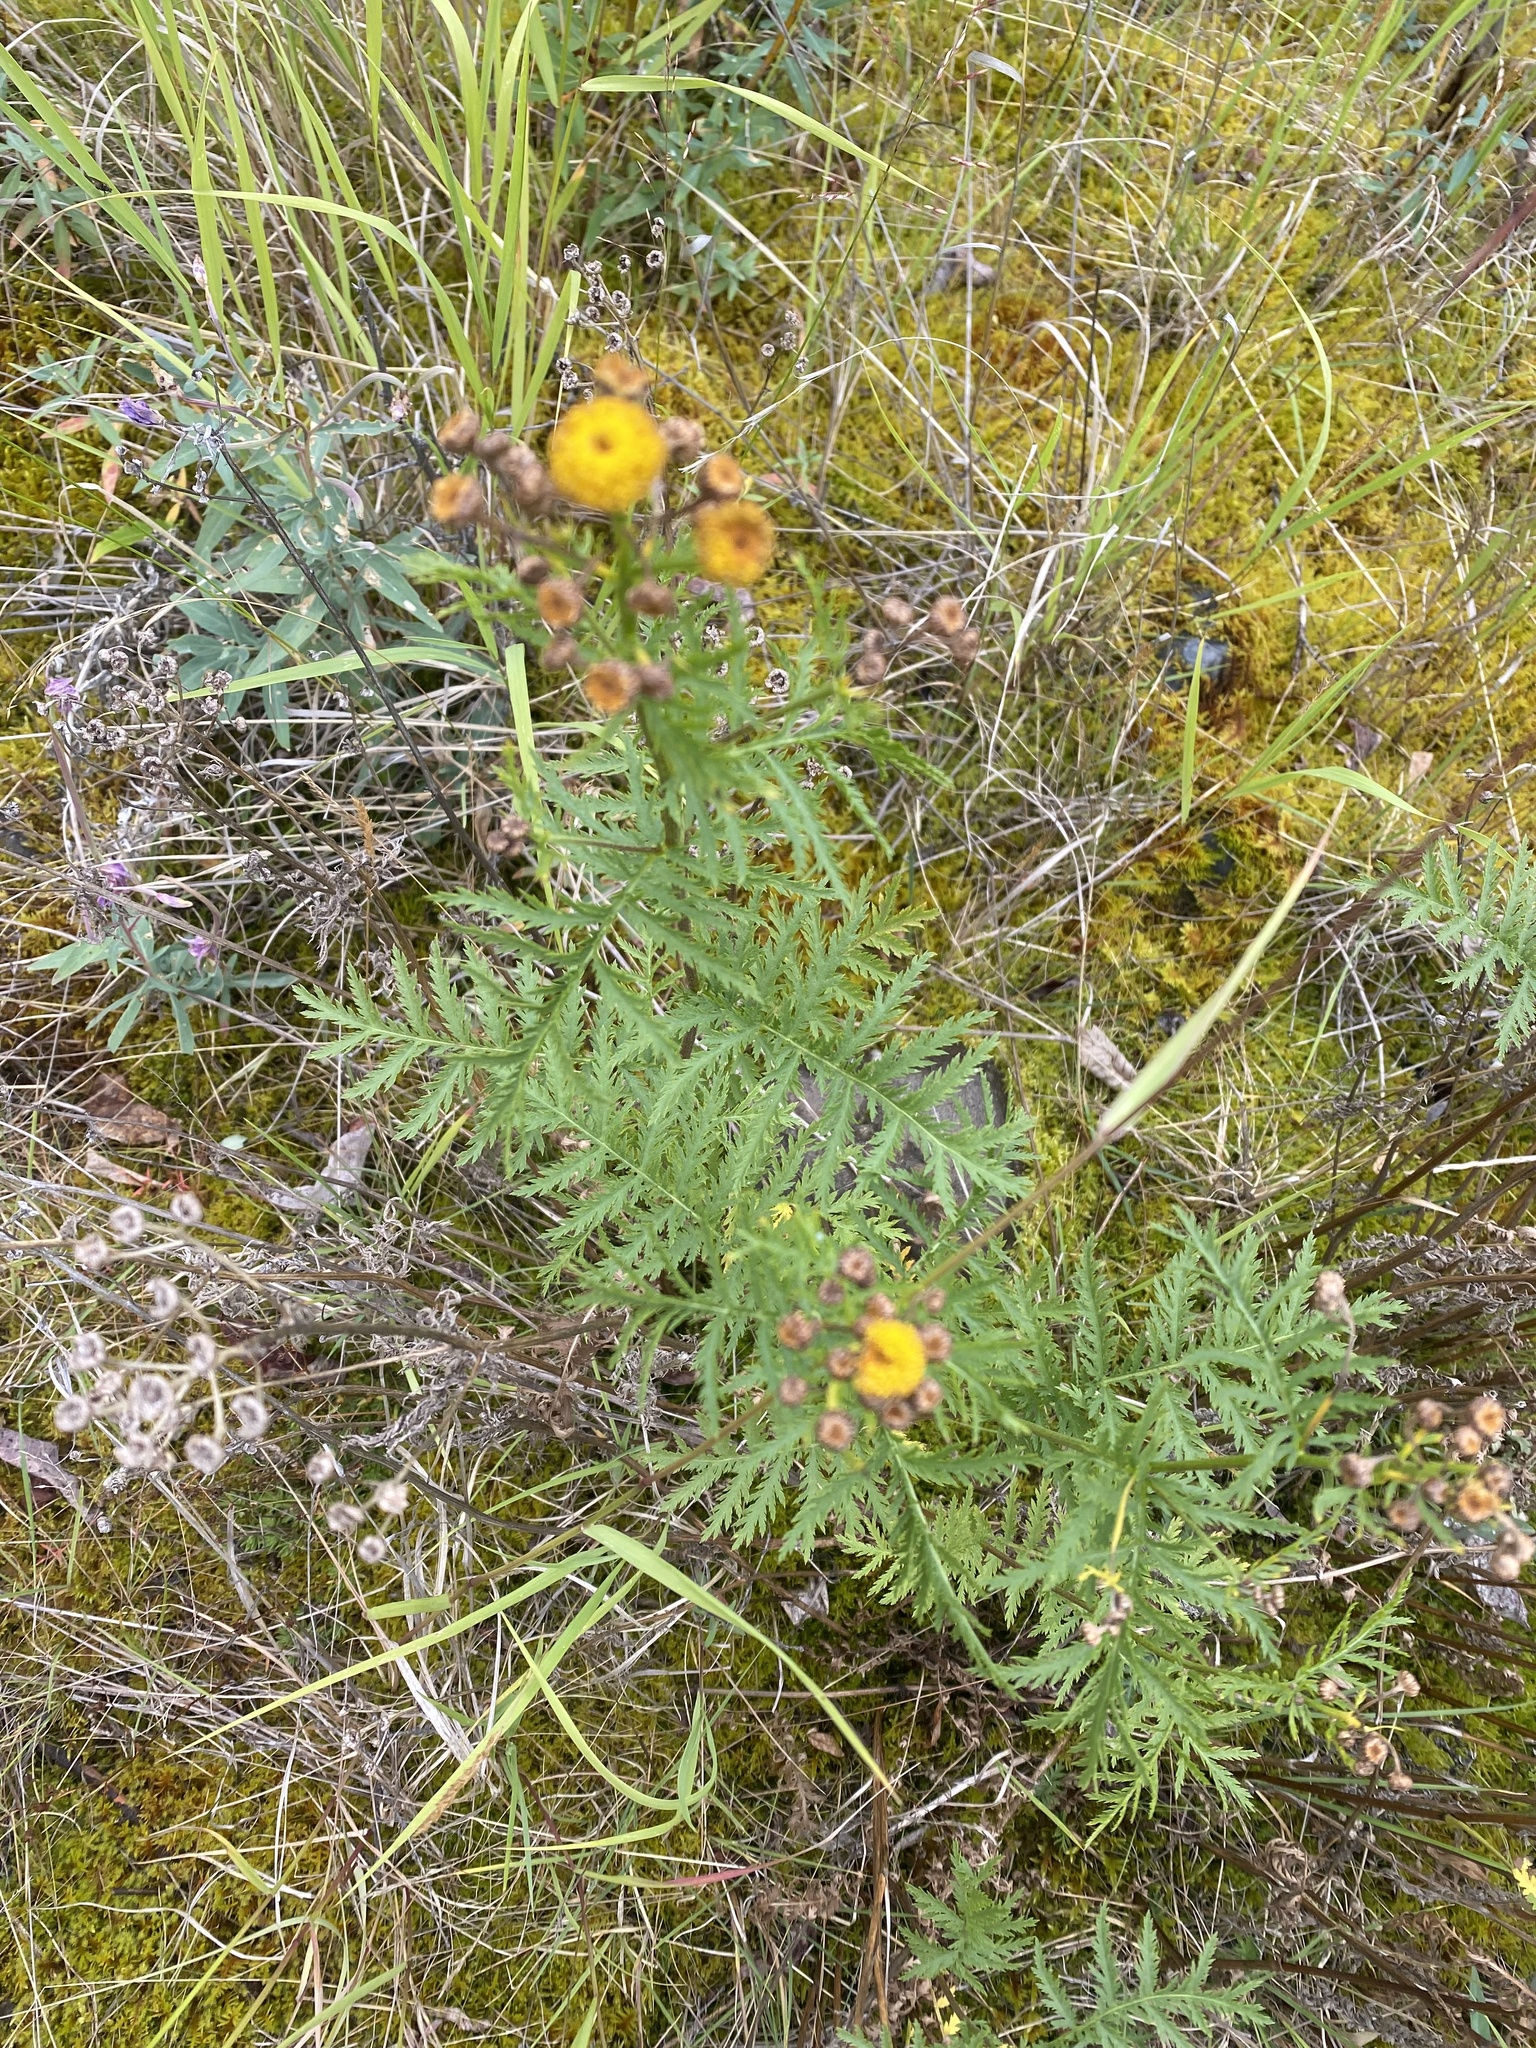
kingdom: Plantae
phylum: Tracheophyta
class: Magnoliopsida
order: Asterales
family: Asteraceae
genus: Tanacetum
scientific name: Tanacetum vulgare
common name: Common tansy
